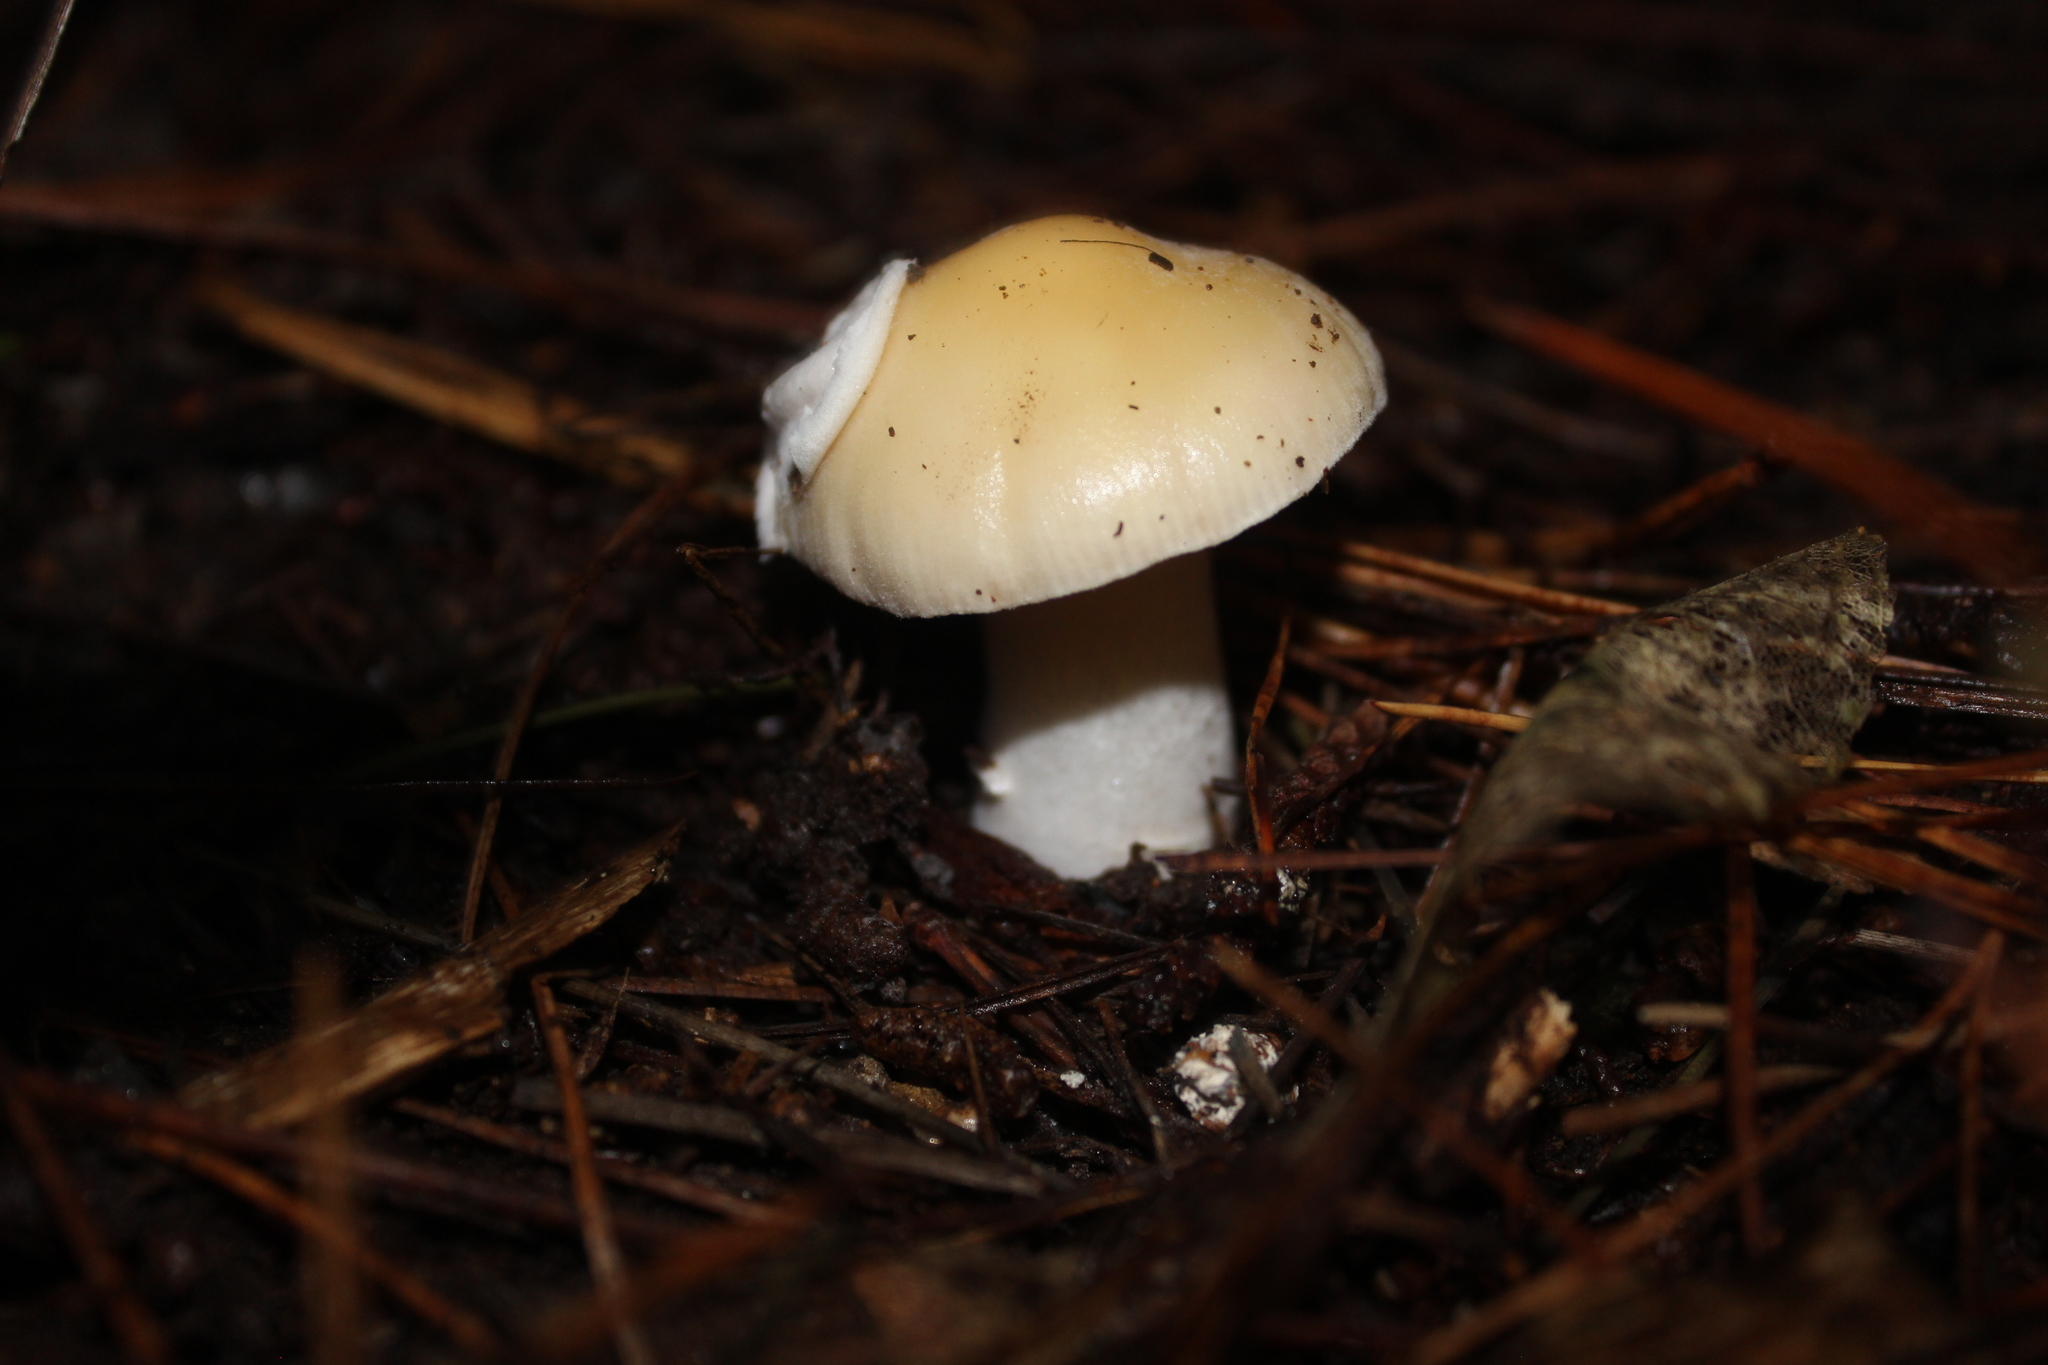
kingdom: Fungi
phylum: Basidiomycota
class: Agaricomycetes
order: Agaricales
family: Amanitaceae
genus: Amanita
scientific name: Amanita gemmata
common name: Jewelled amanita
